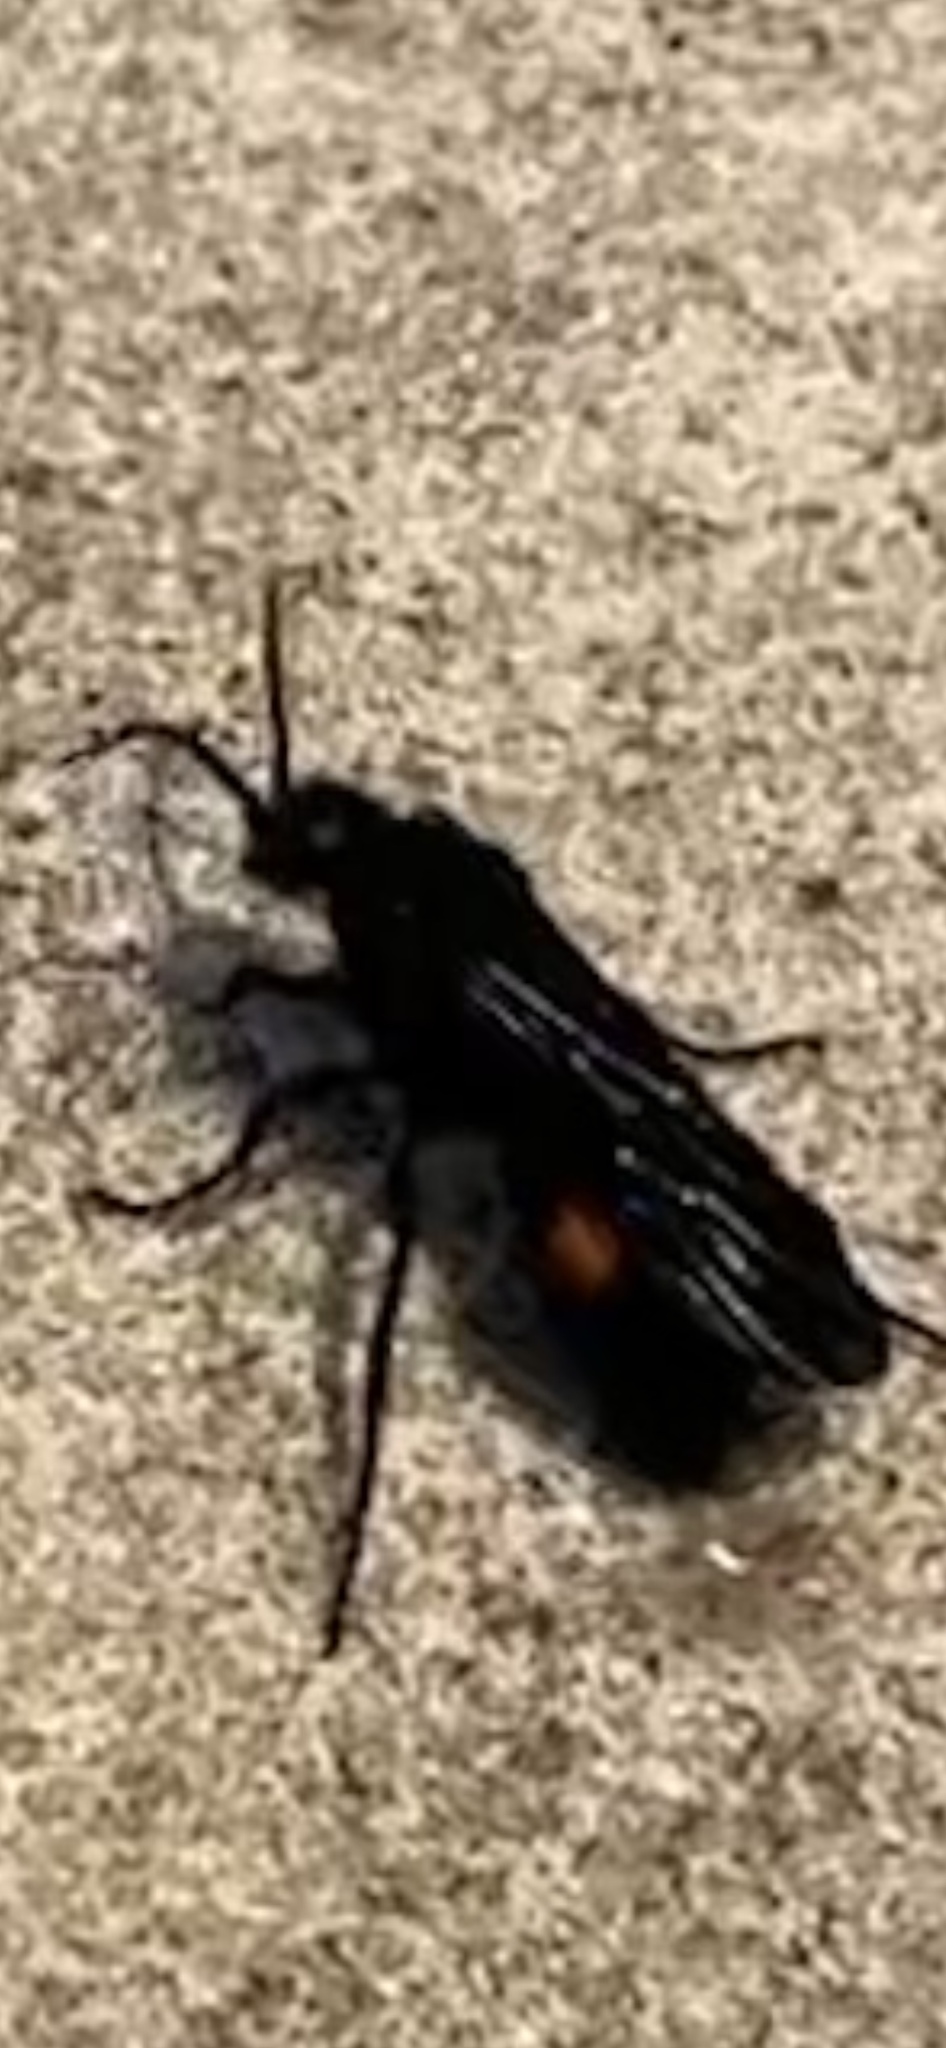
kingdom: Animalia
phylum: Arthropoda
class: Insecta
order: Hymenoptera
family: Mutillidae
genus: Dasymutilla
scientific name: Dasymutilla
